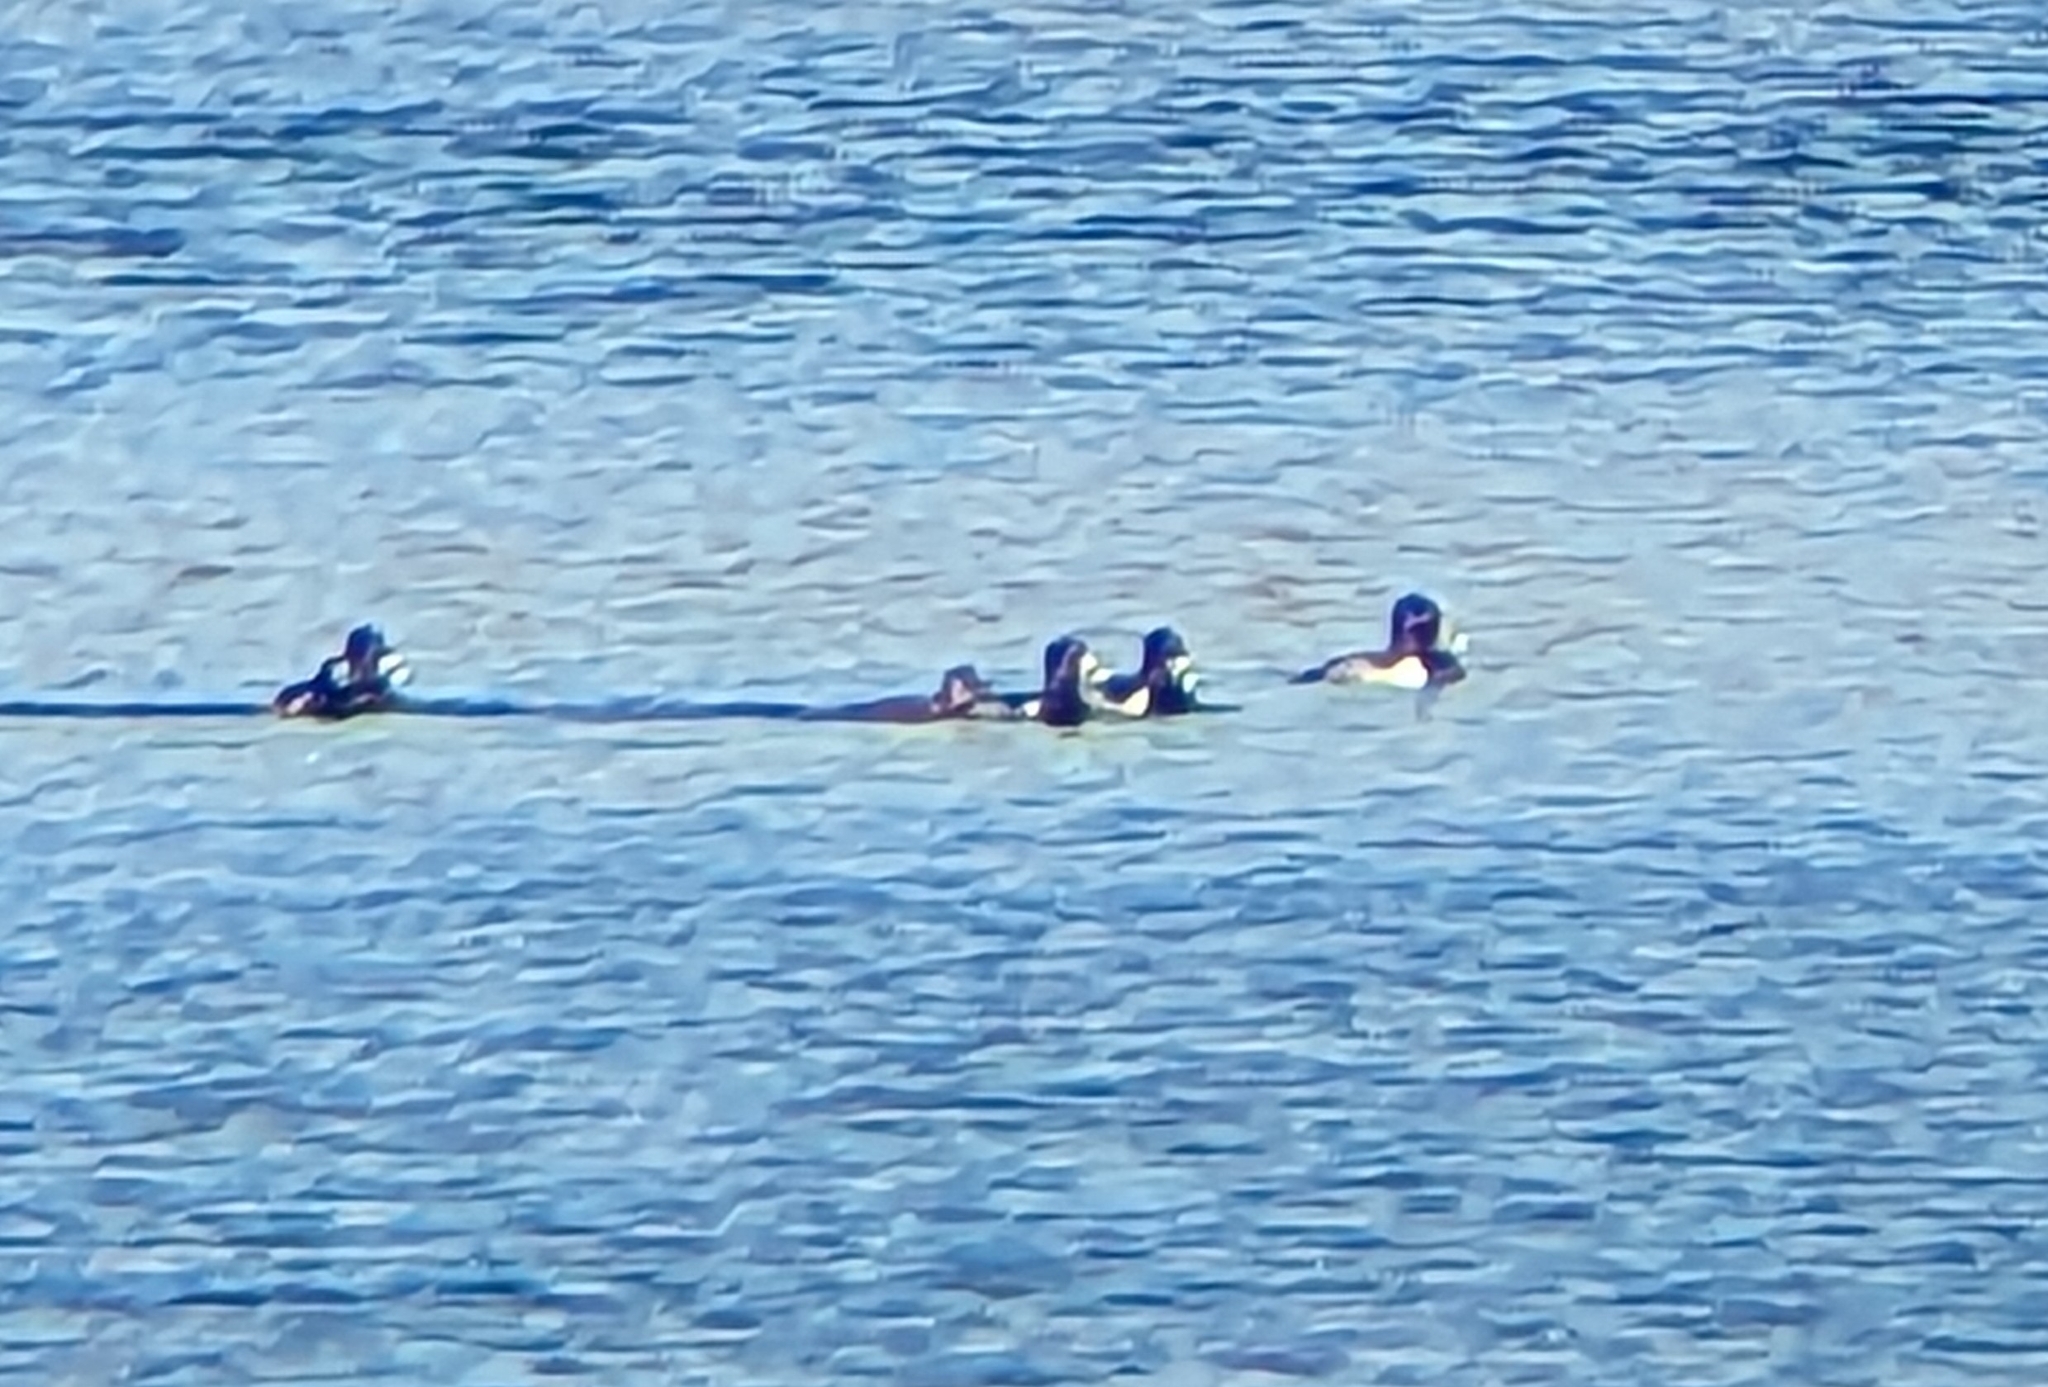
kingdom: Animalia
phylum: Chordata
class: Aves
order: Anseriformes
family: Anatidae
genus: Aythya
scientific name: Aythya collaris
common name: Ring-necked duck
